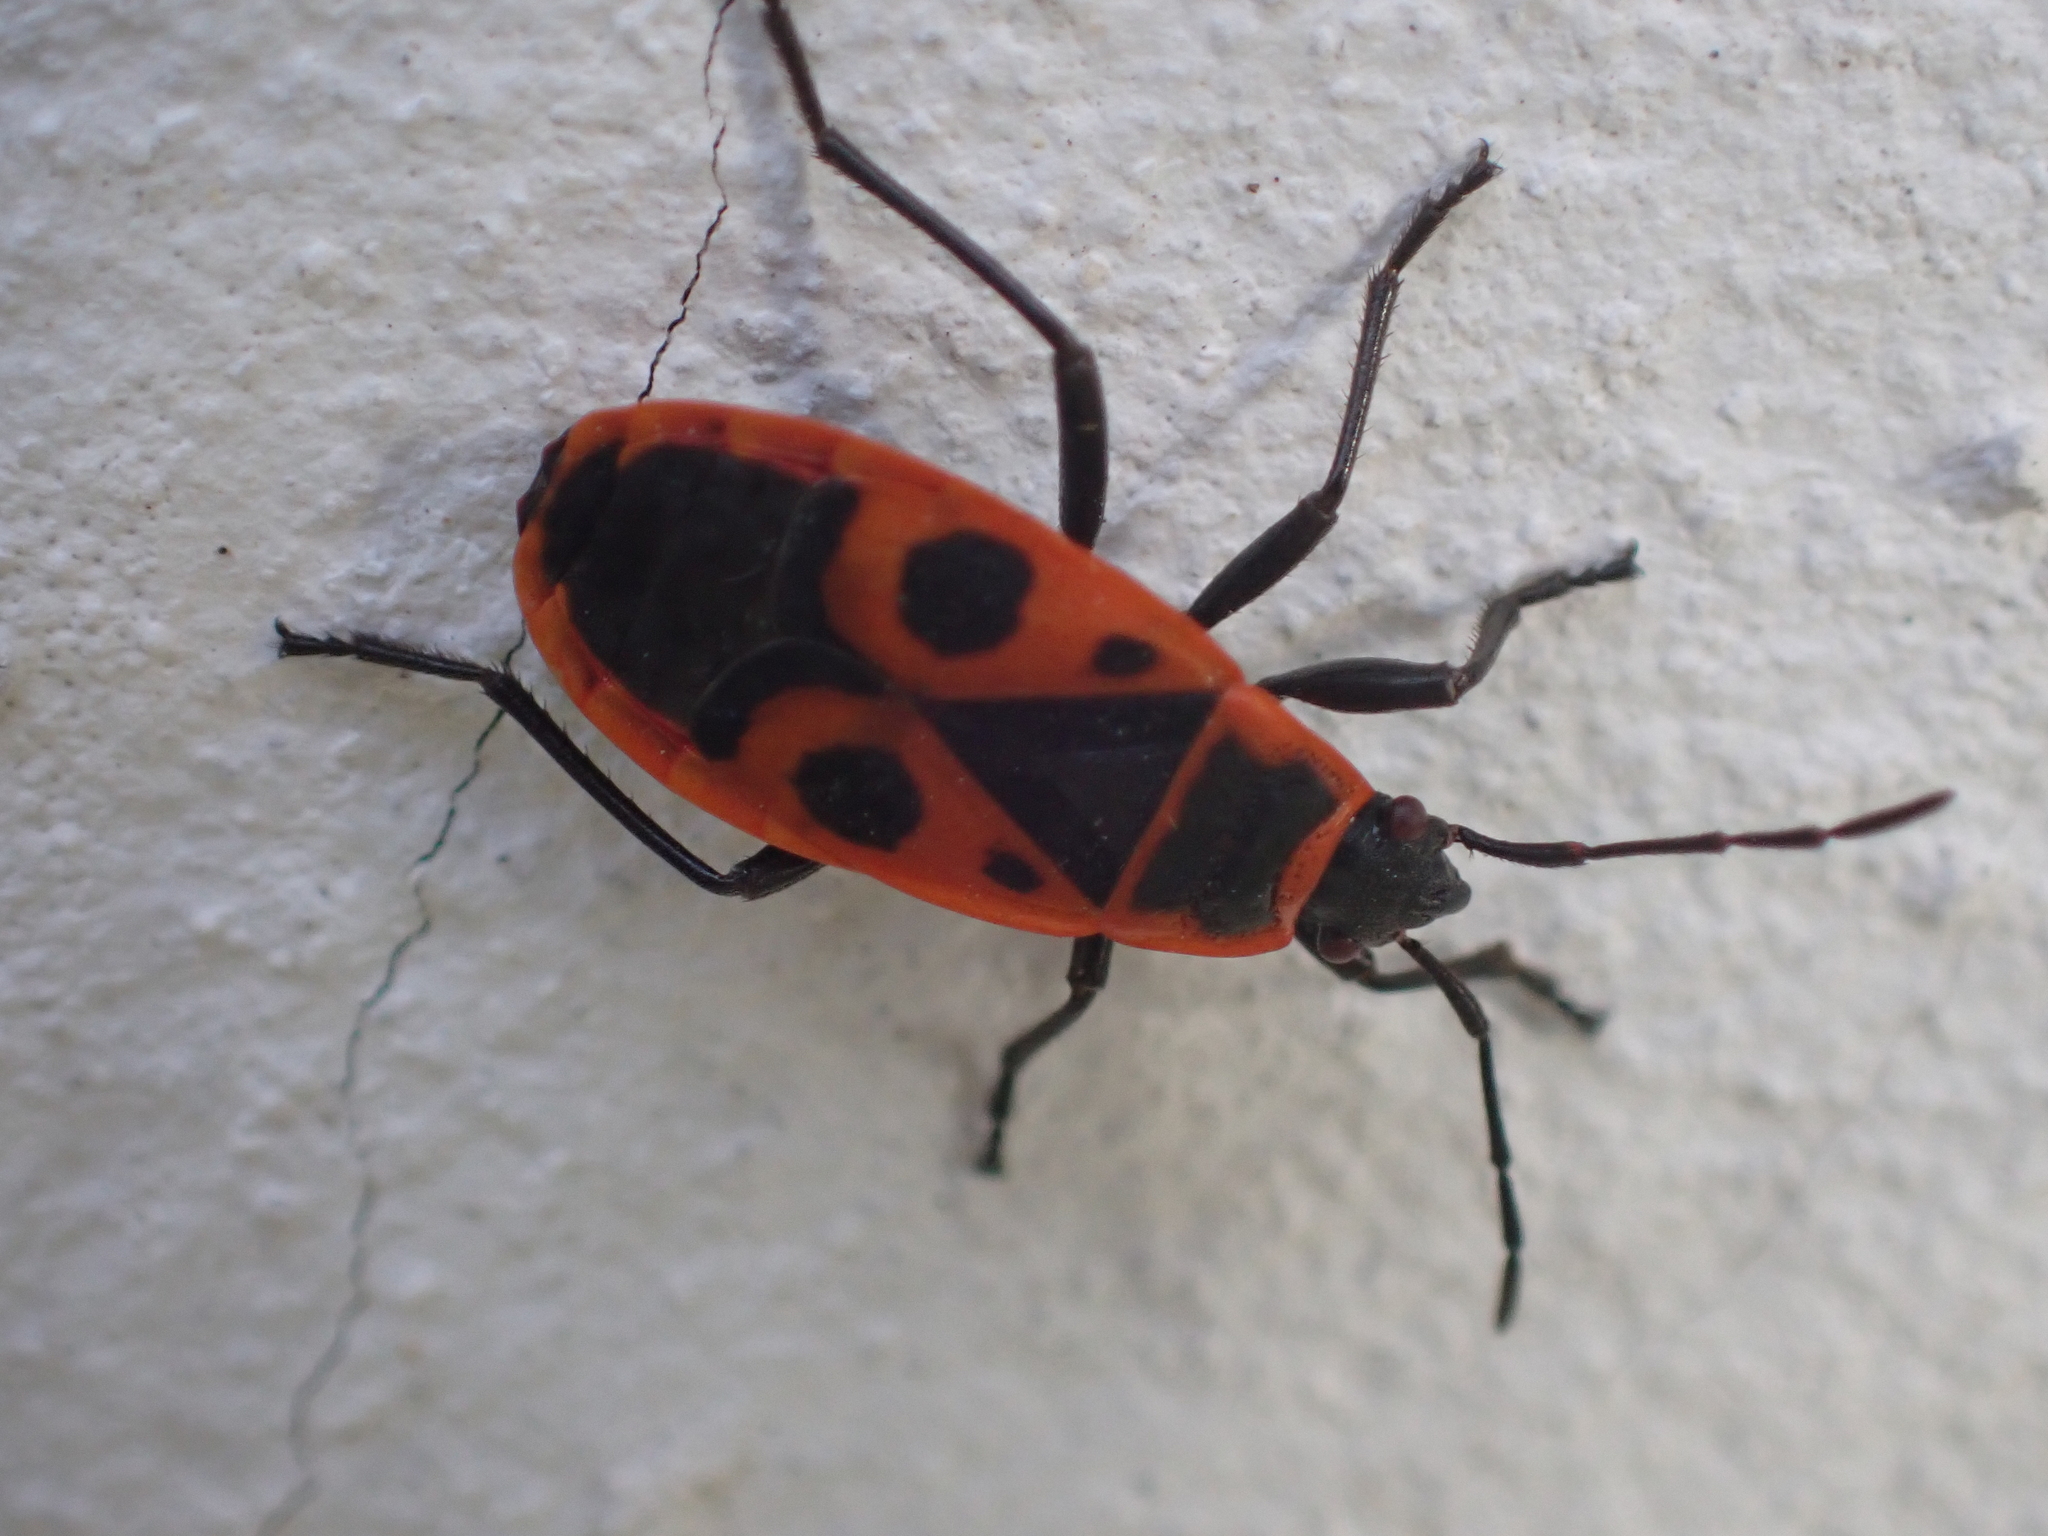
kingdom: Animalia
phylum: Arthropoda
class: Insecta
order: Hemiptera
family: Pyrrhocoridae
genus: Pyrrhocoris
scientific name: Pyrrhocoris apterus
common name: Firebug
